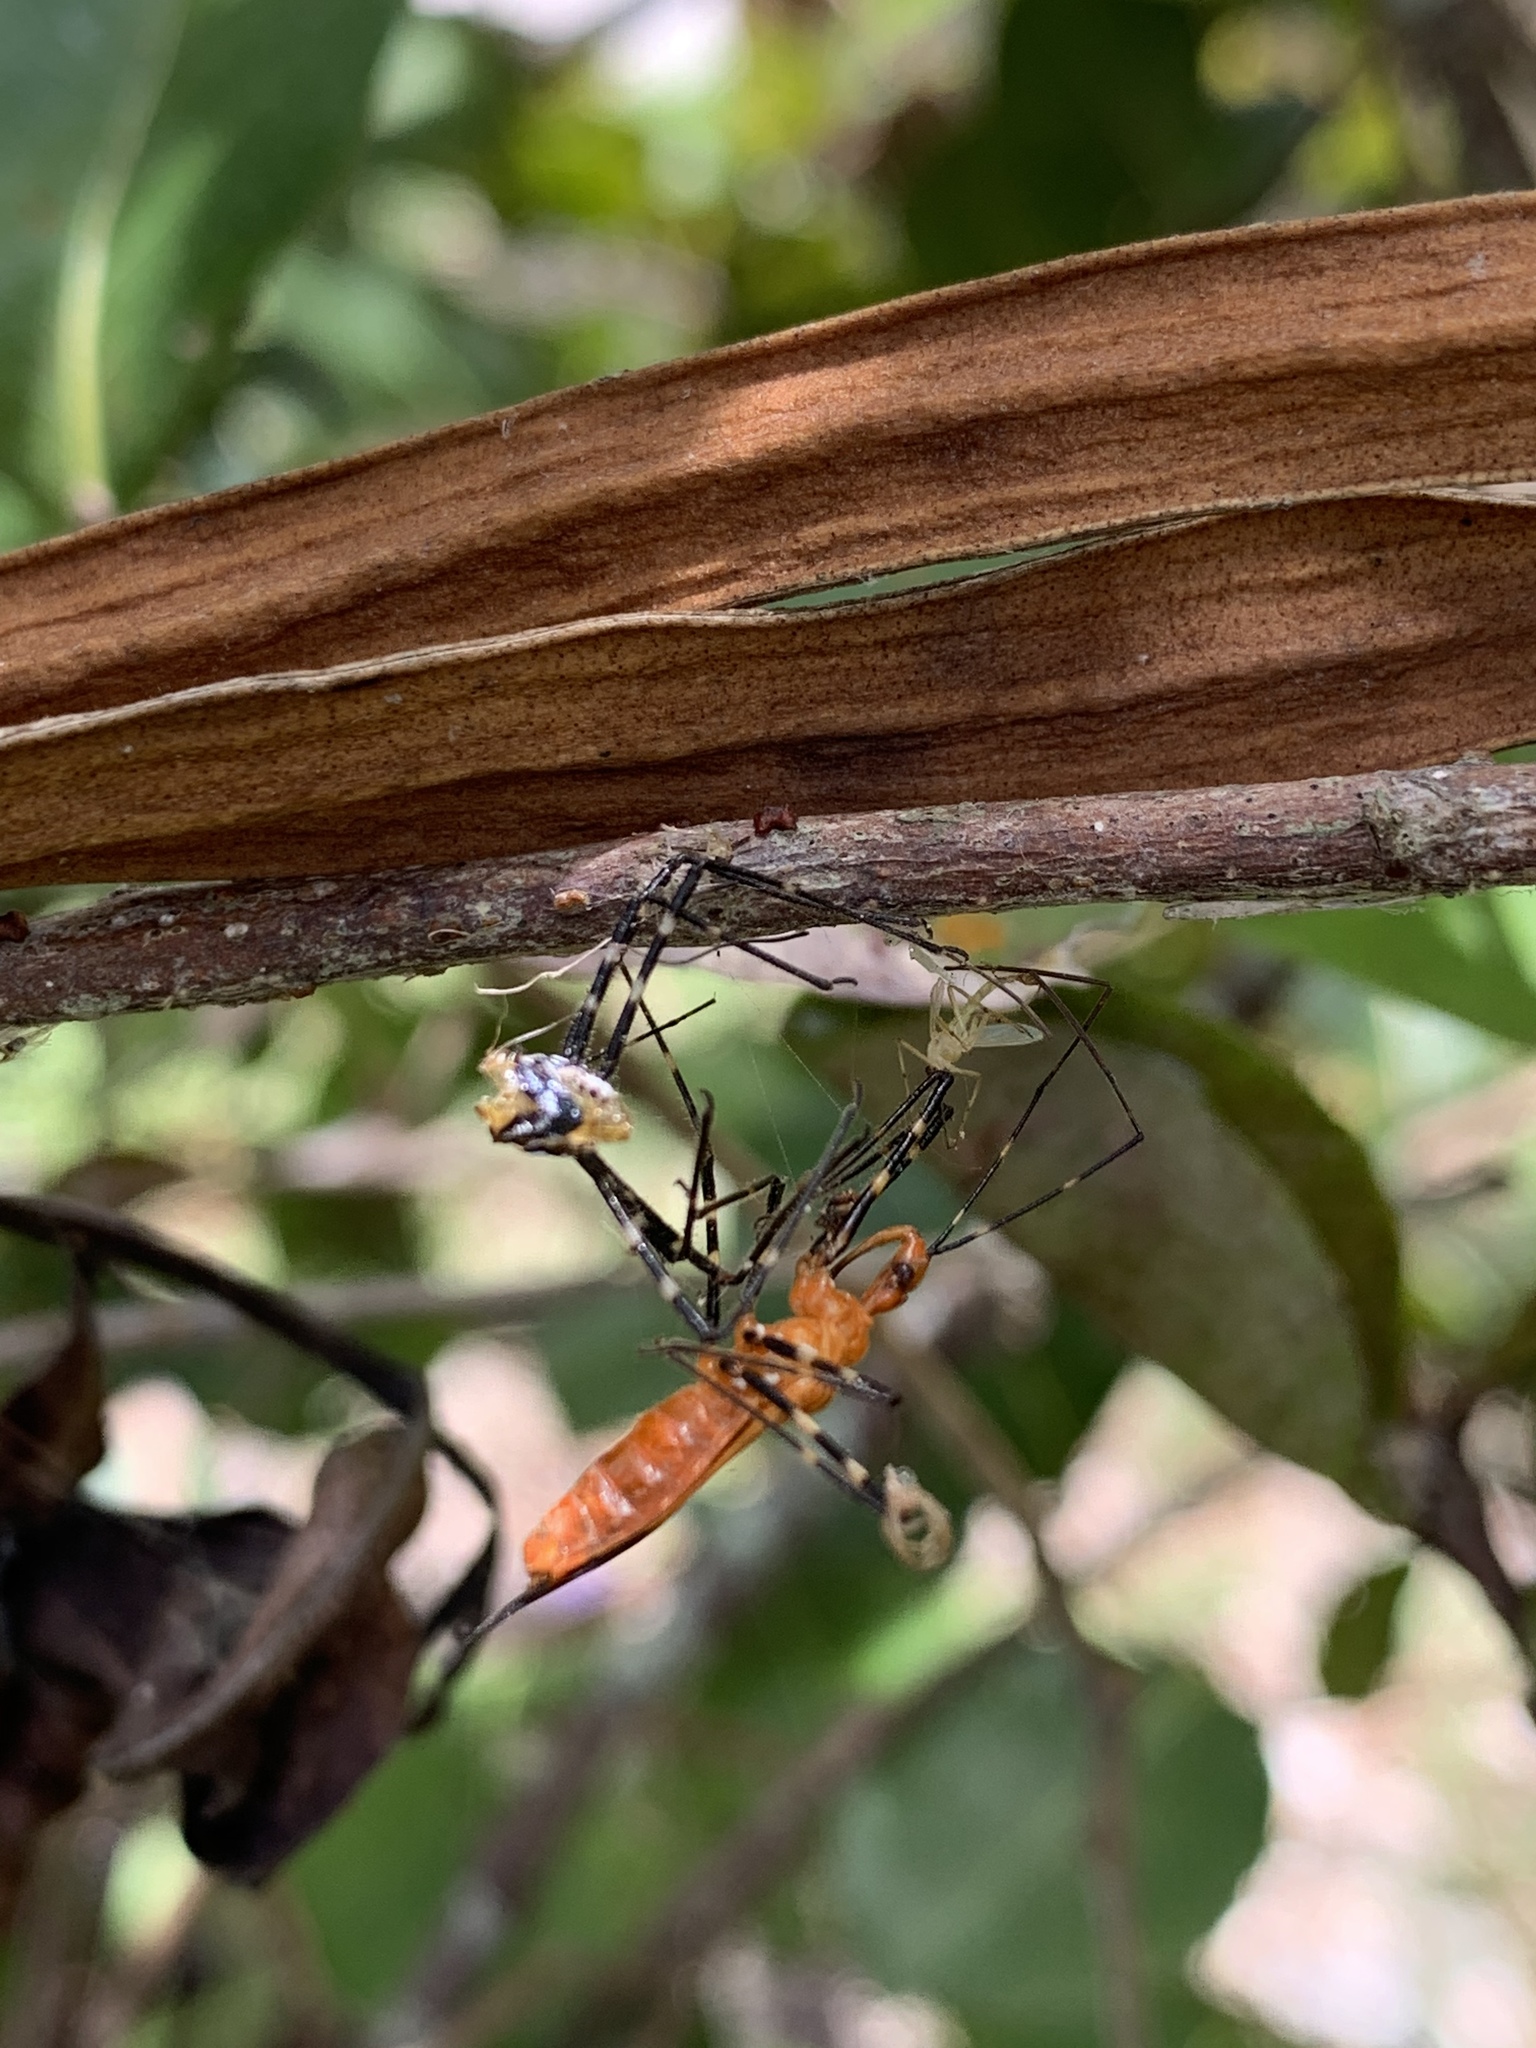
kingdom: Animalia
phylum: Arthropoda
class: Insecta
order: Hemiptera
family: Reduviidae
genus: Zelus
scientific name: Zelus longipes
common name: Milkweed assassin bug
